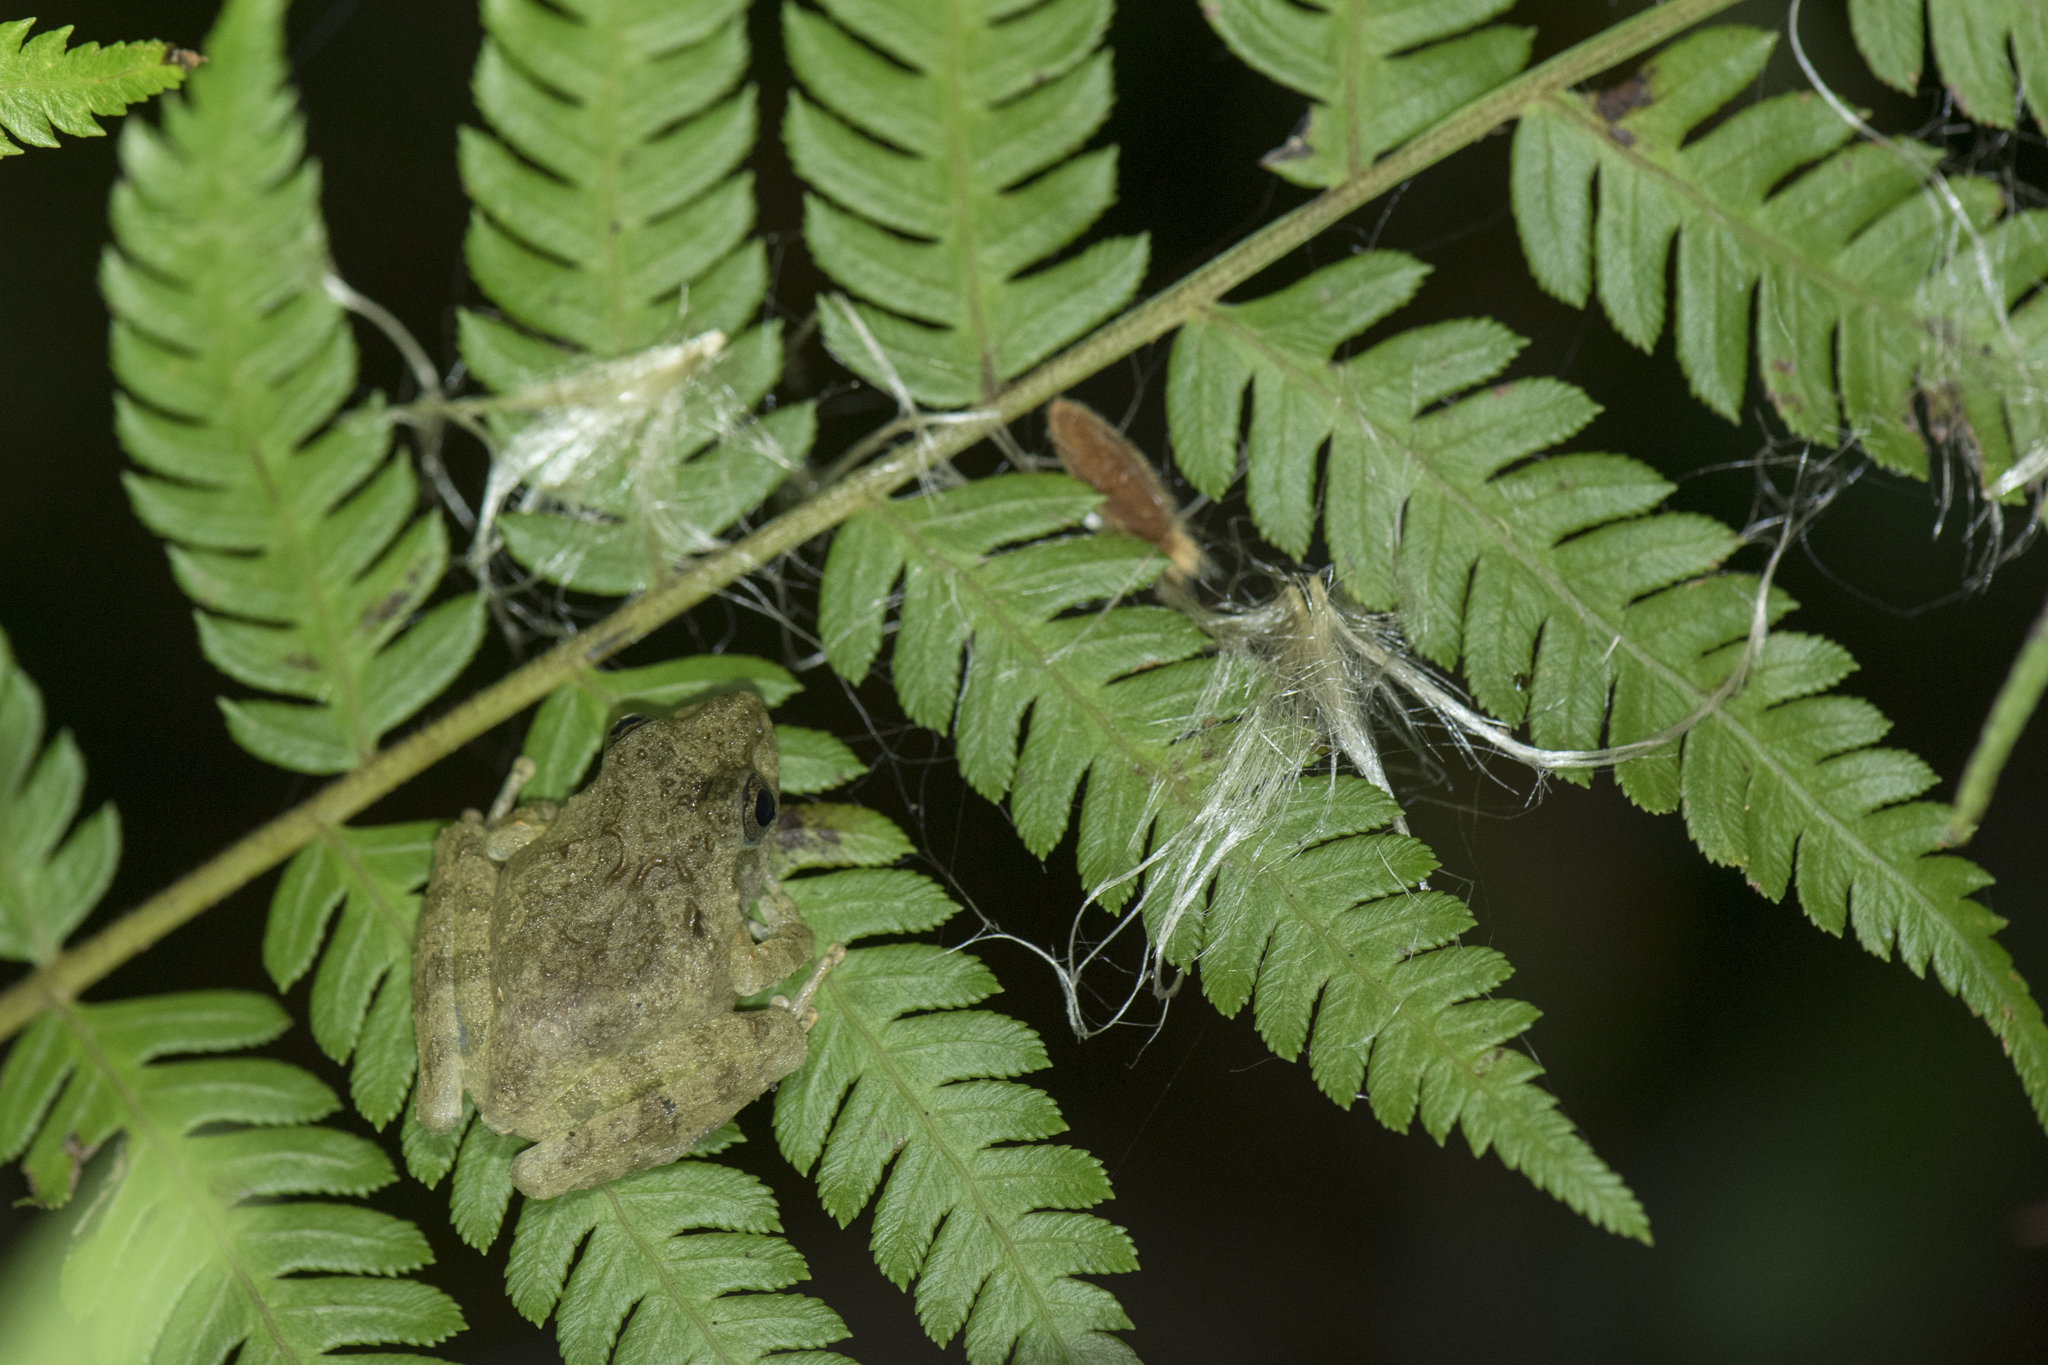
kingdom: Animalia
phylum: Chordata
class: Amphibia
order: Anura
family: Rhacophoridae
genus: Buergeria
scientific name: Buergeria choui
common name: Yaeyama kajika frog
